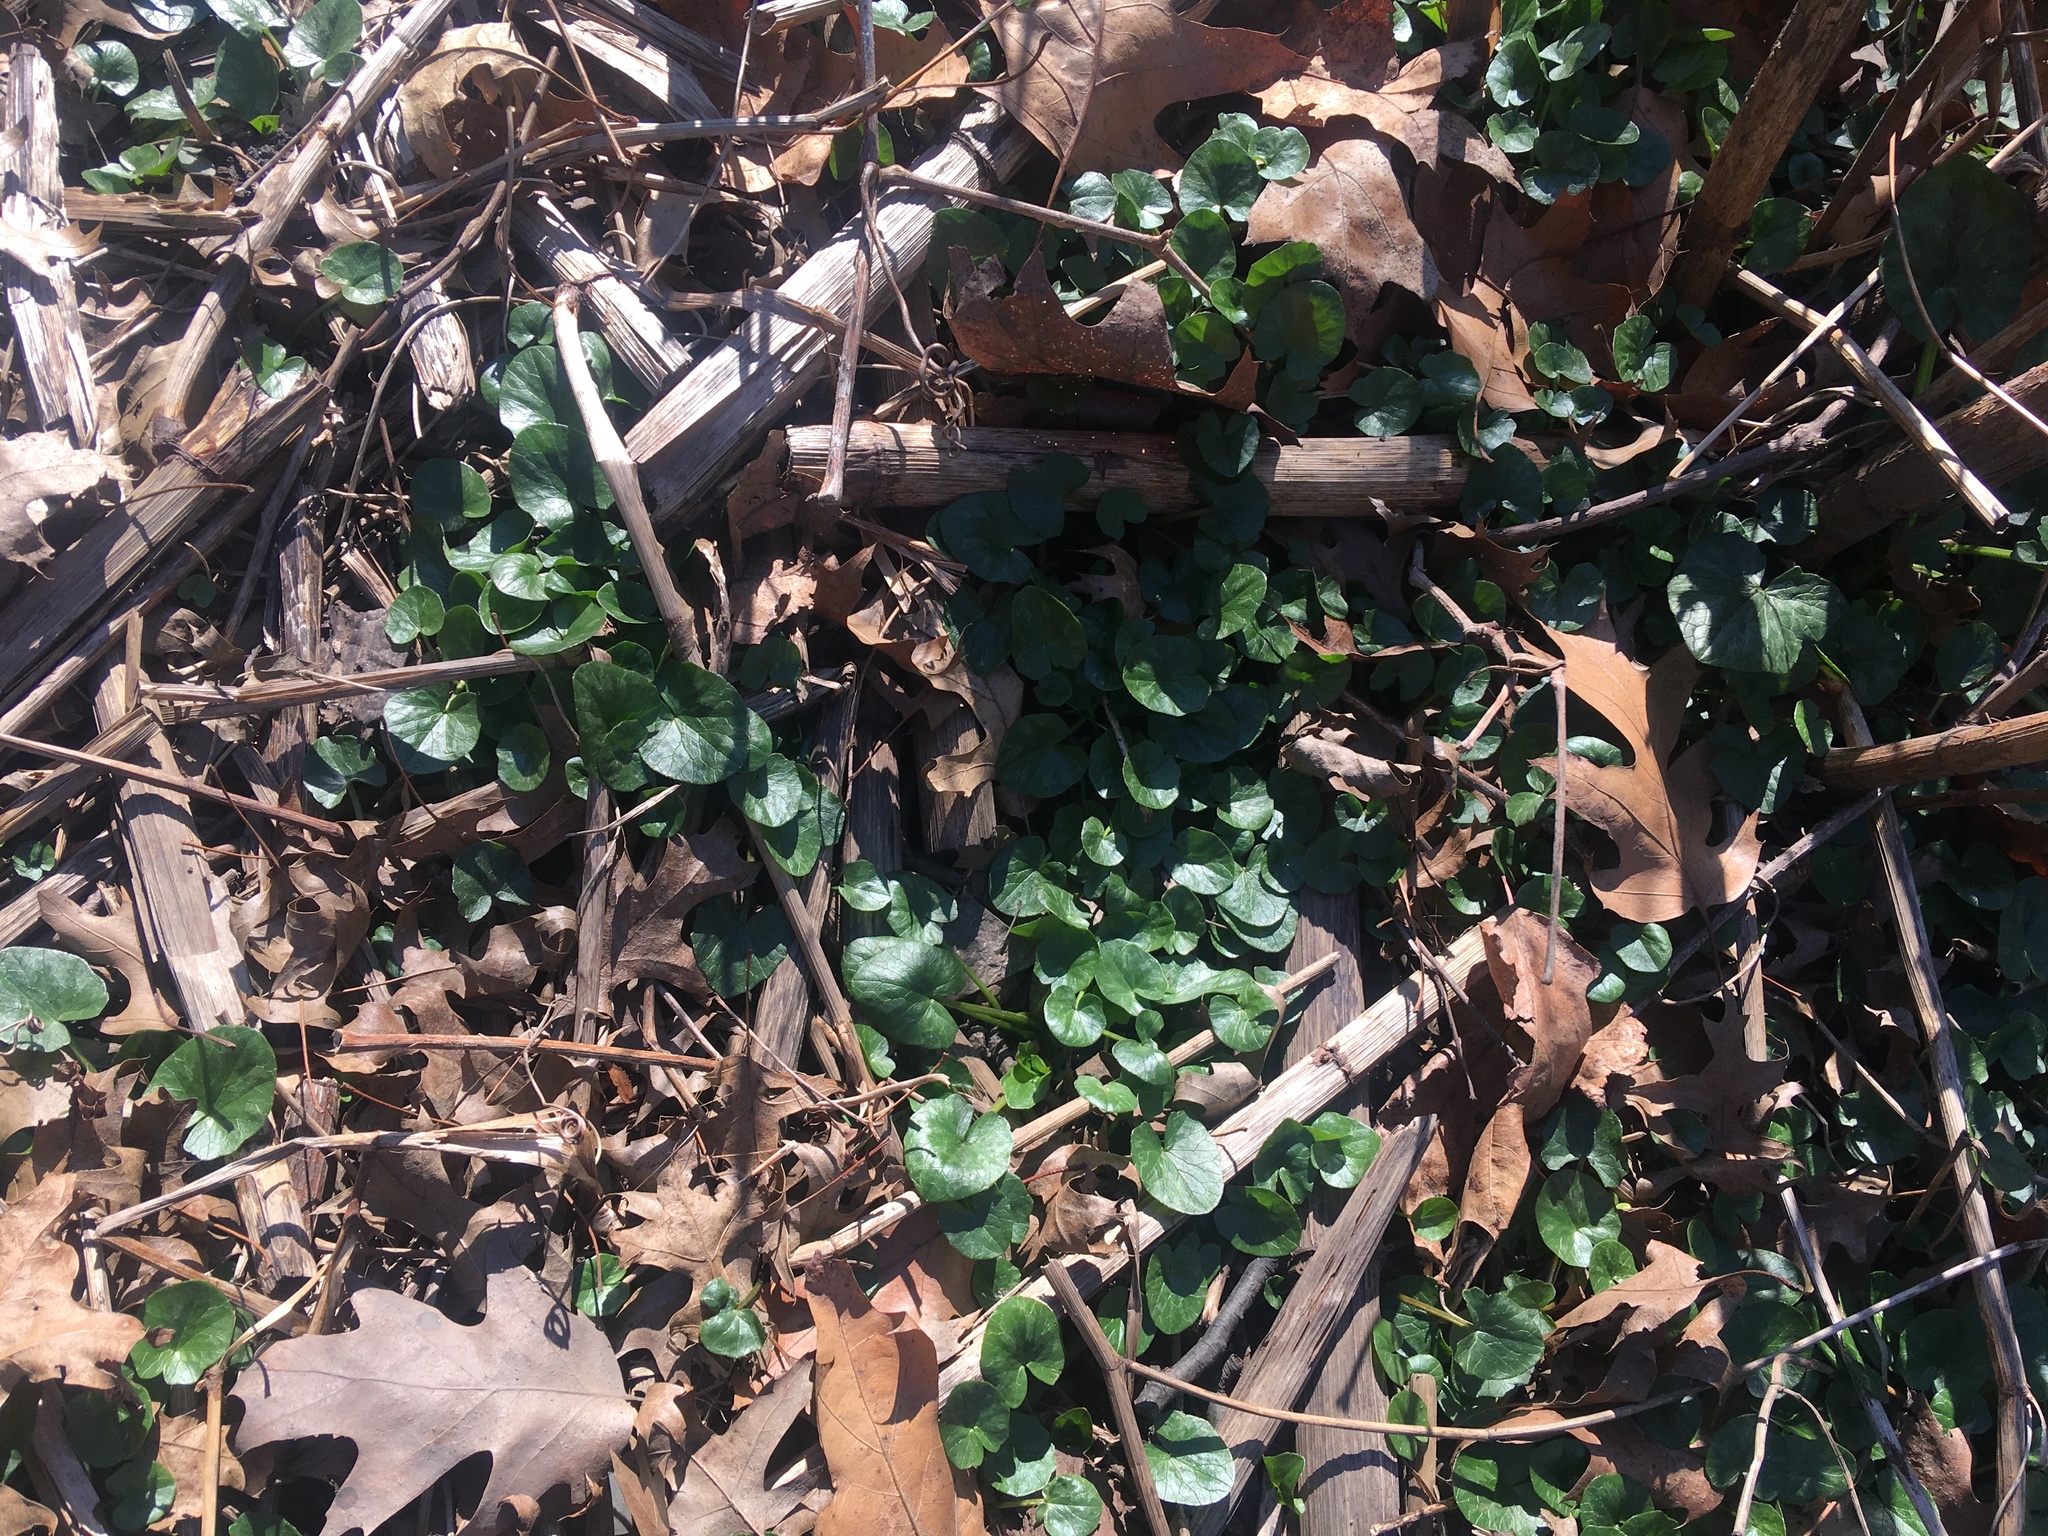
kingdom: Plantae
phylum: Tracheophyta
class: Magnoliopsida
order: Ranunculales
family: Ranunculaceae
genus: Ficaria
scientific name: Ficaria verna
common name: Lesser celandine
